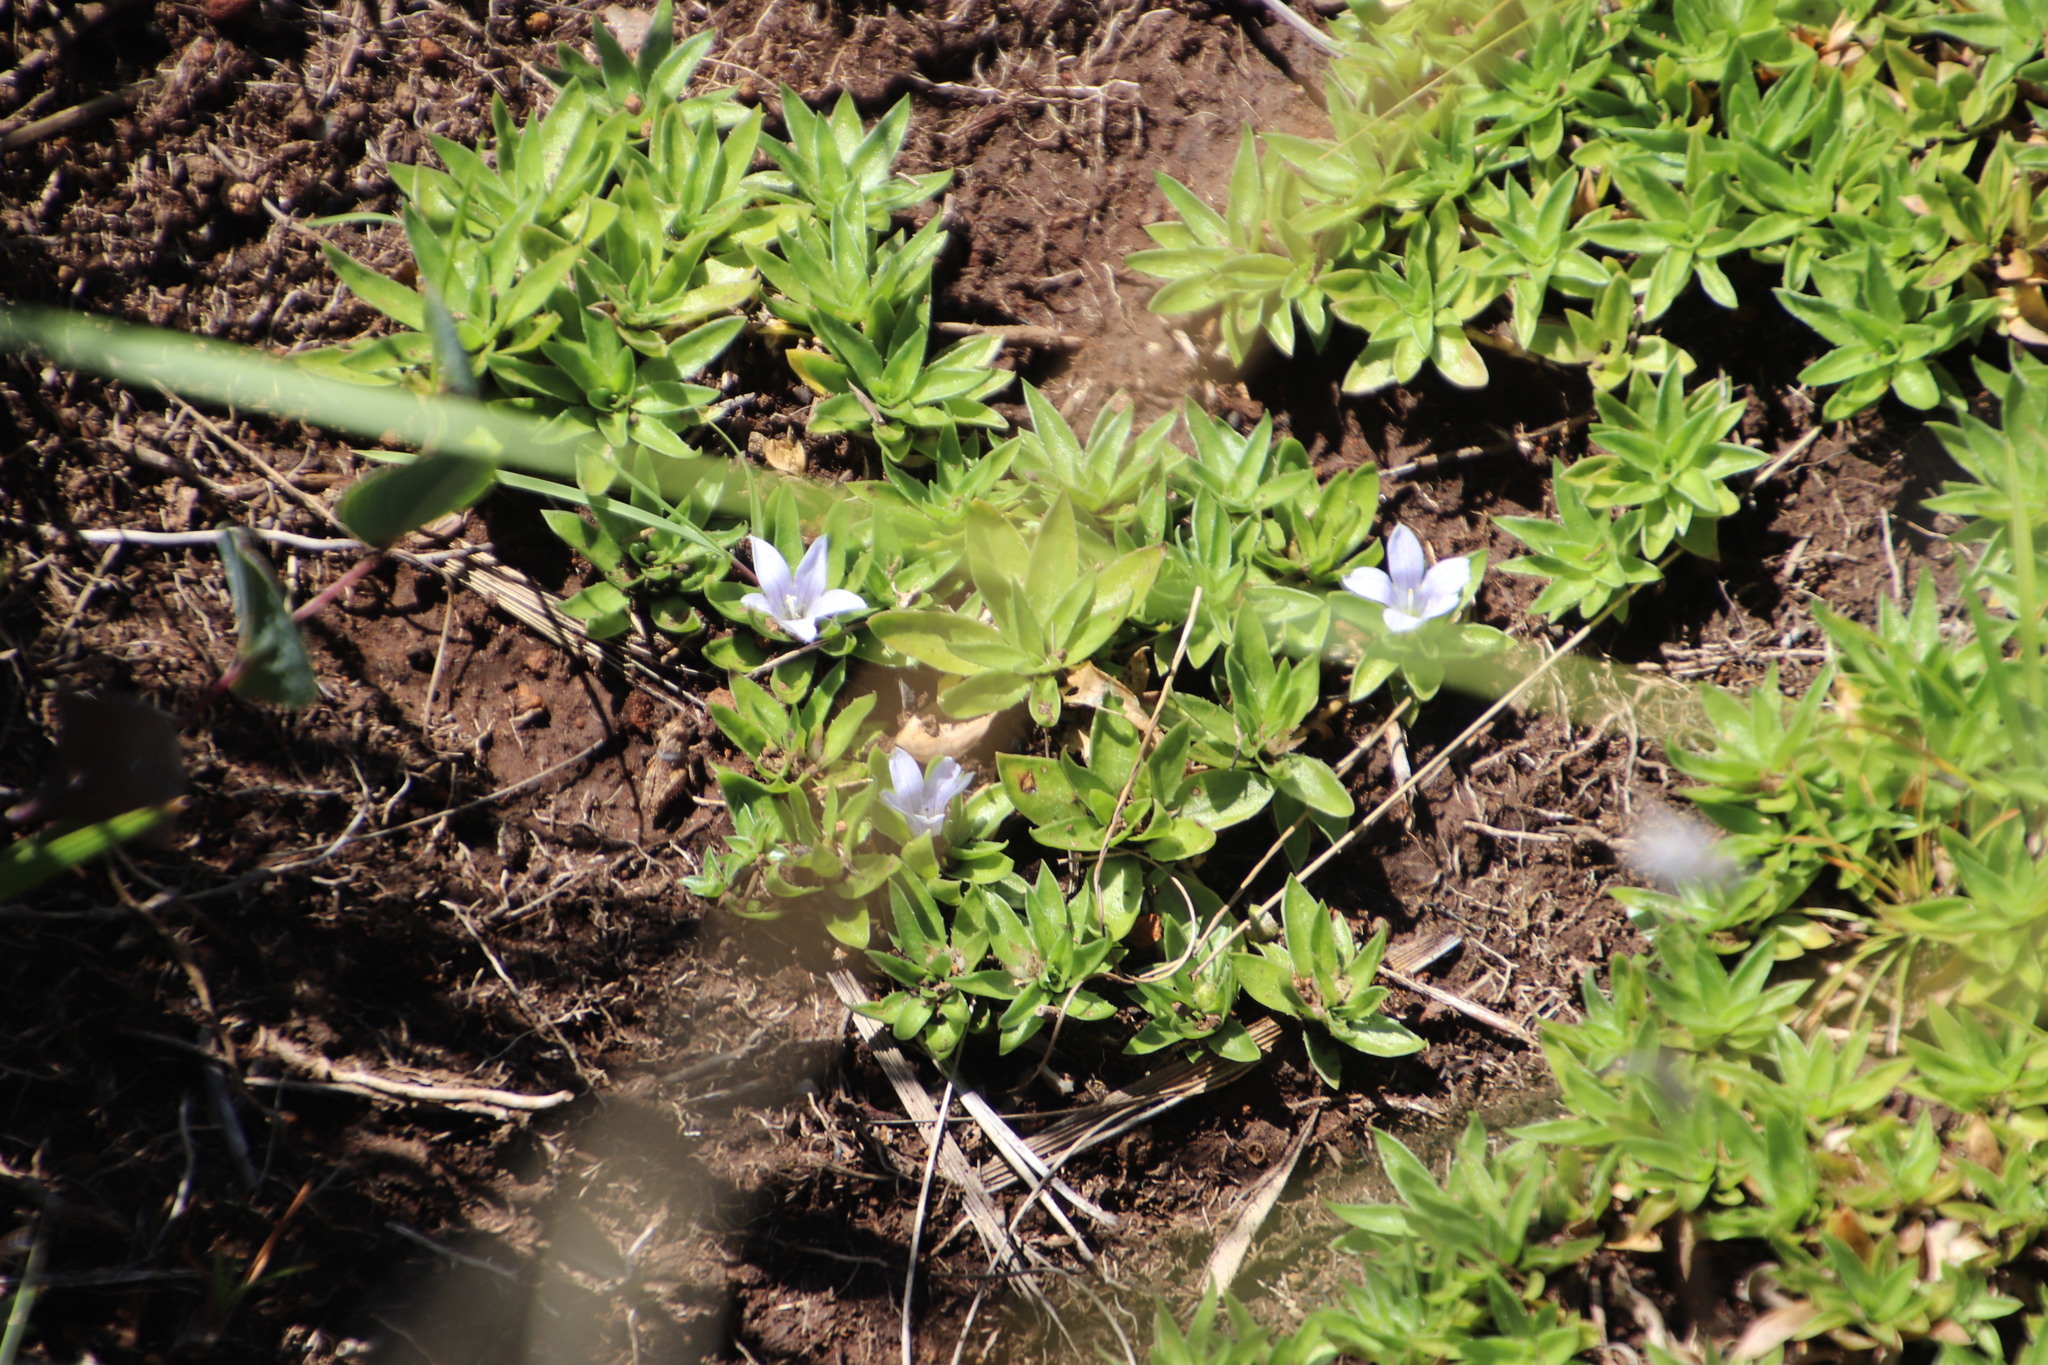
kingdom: Plantae
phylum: Tracheophyta
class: Magnoliopsida
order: Asterales
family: Campanulaceae
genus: Craterocapsa
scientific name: Craterocapsa tarsodes
